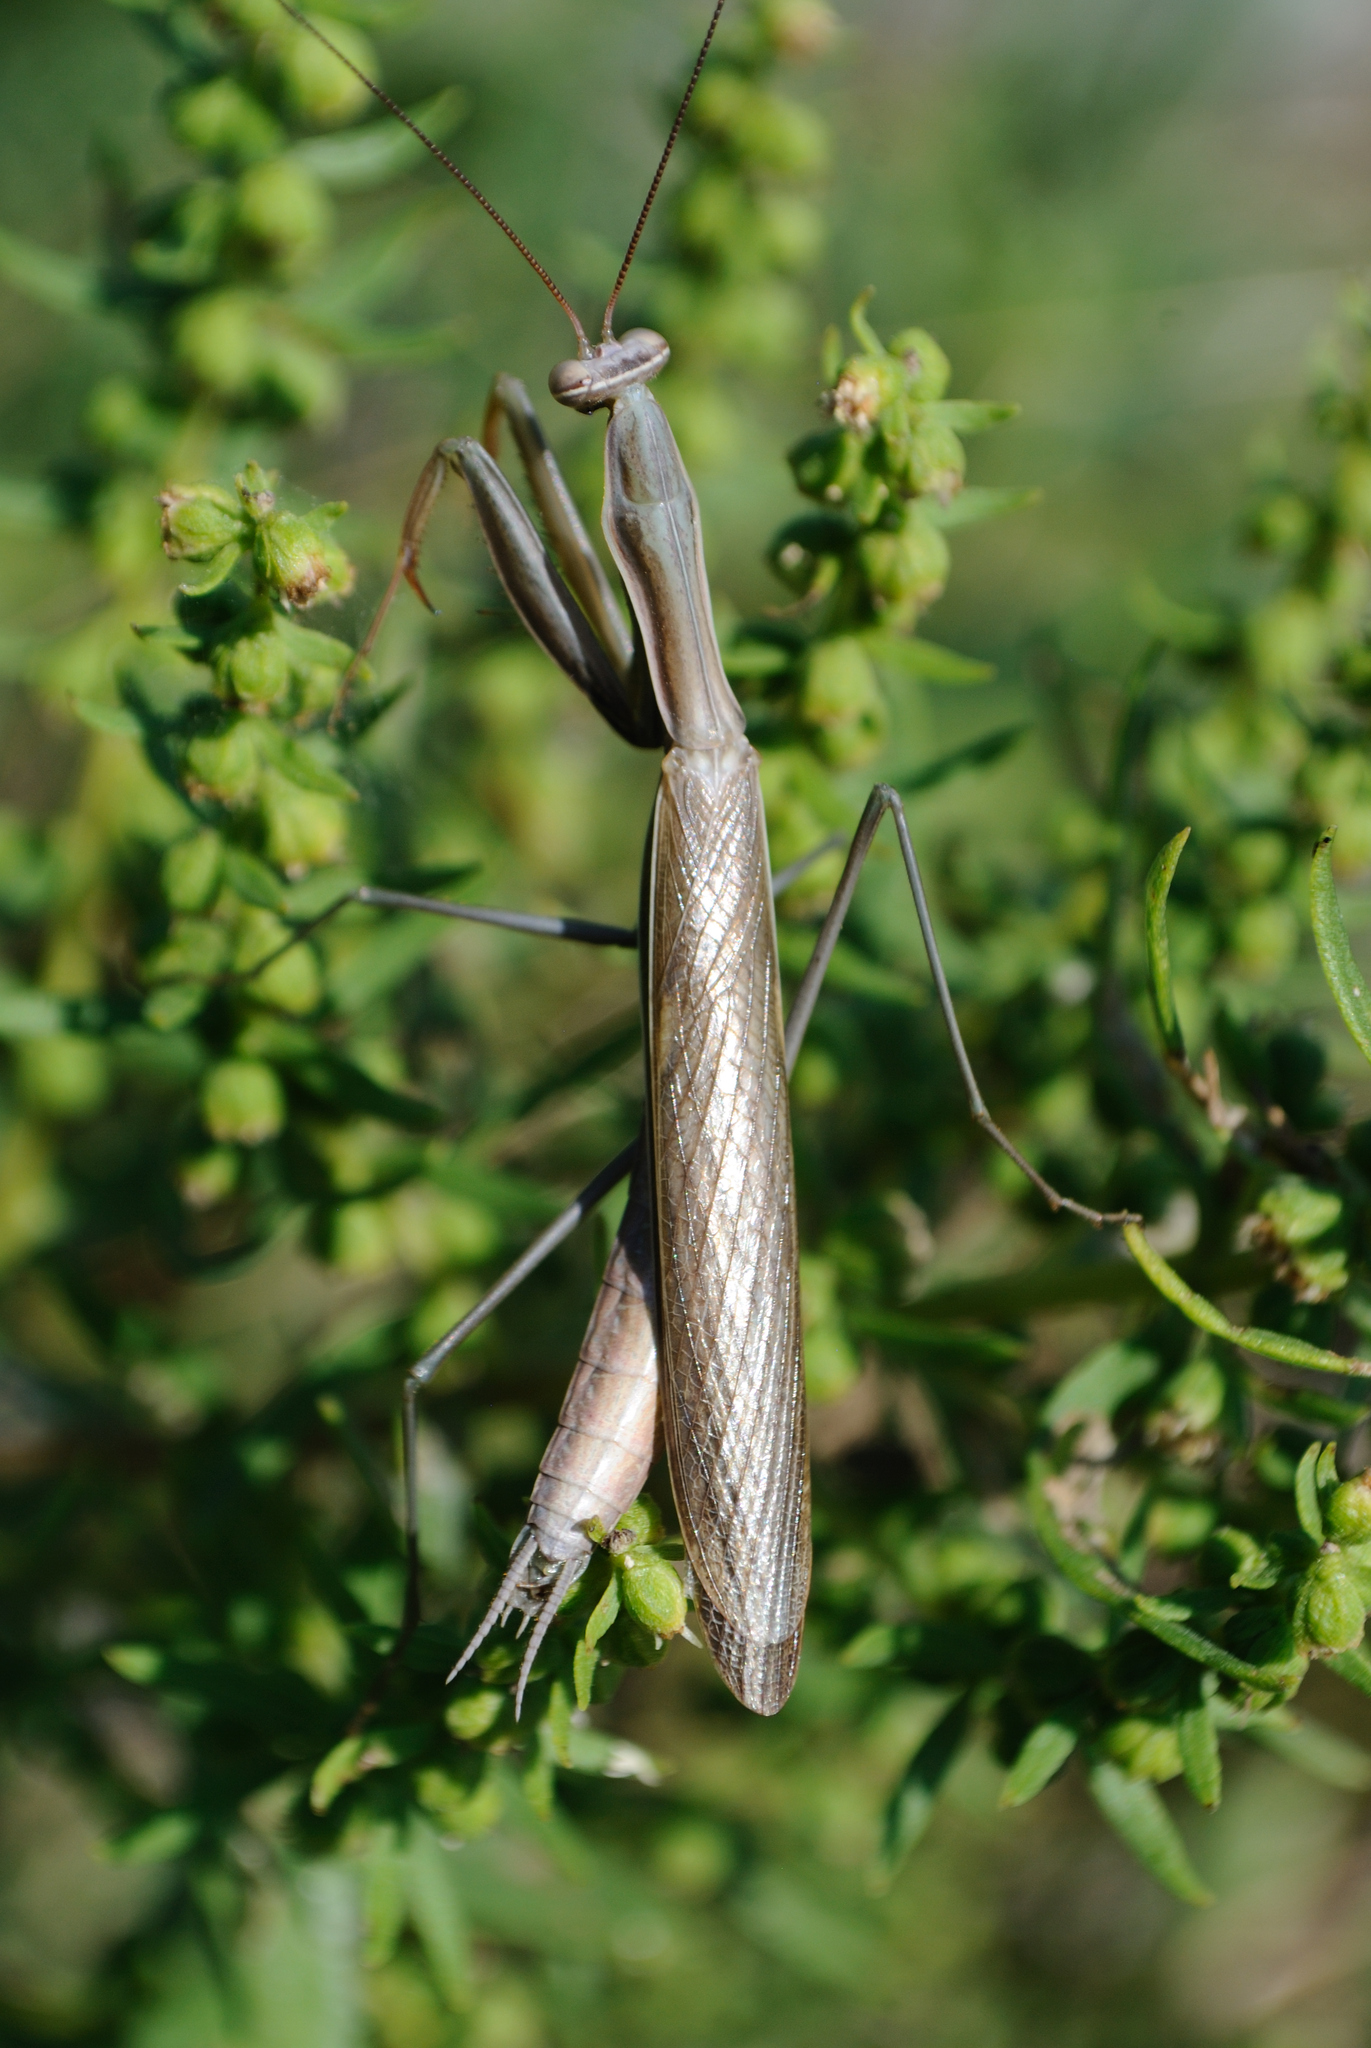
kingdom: Animalia
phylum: Arthropoda
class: Insecta
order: Mantodea
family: Mantidae
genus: Mantis
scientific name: Mantis religiosa
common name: Praying mantis
